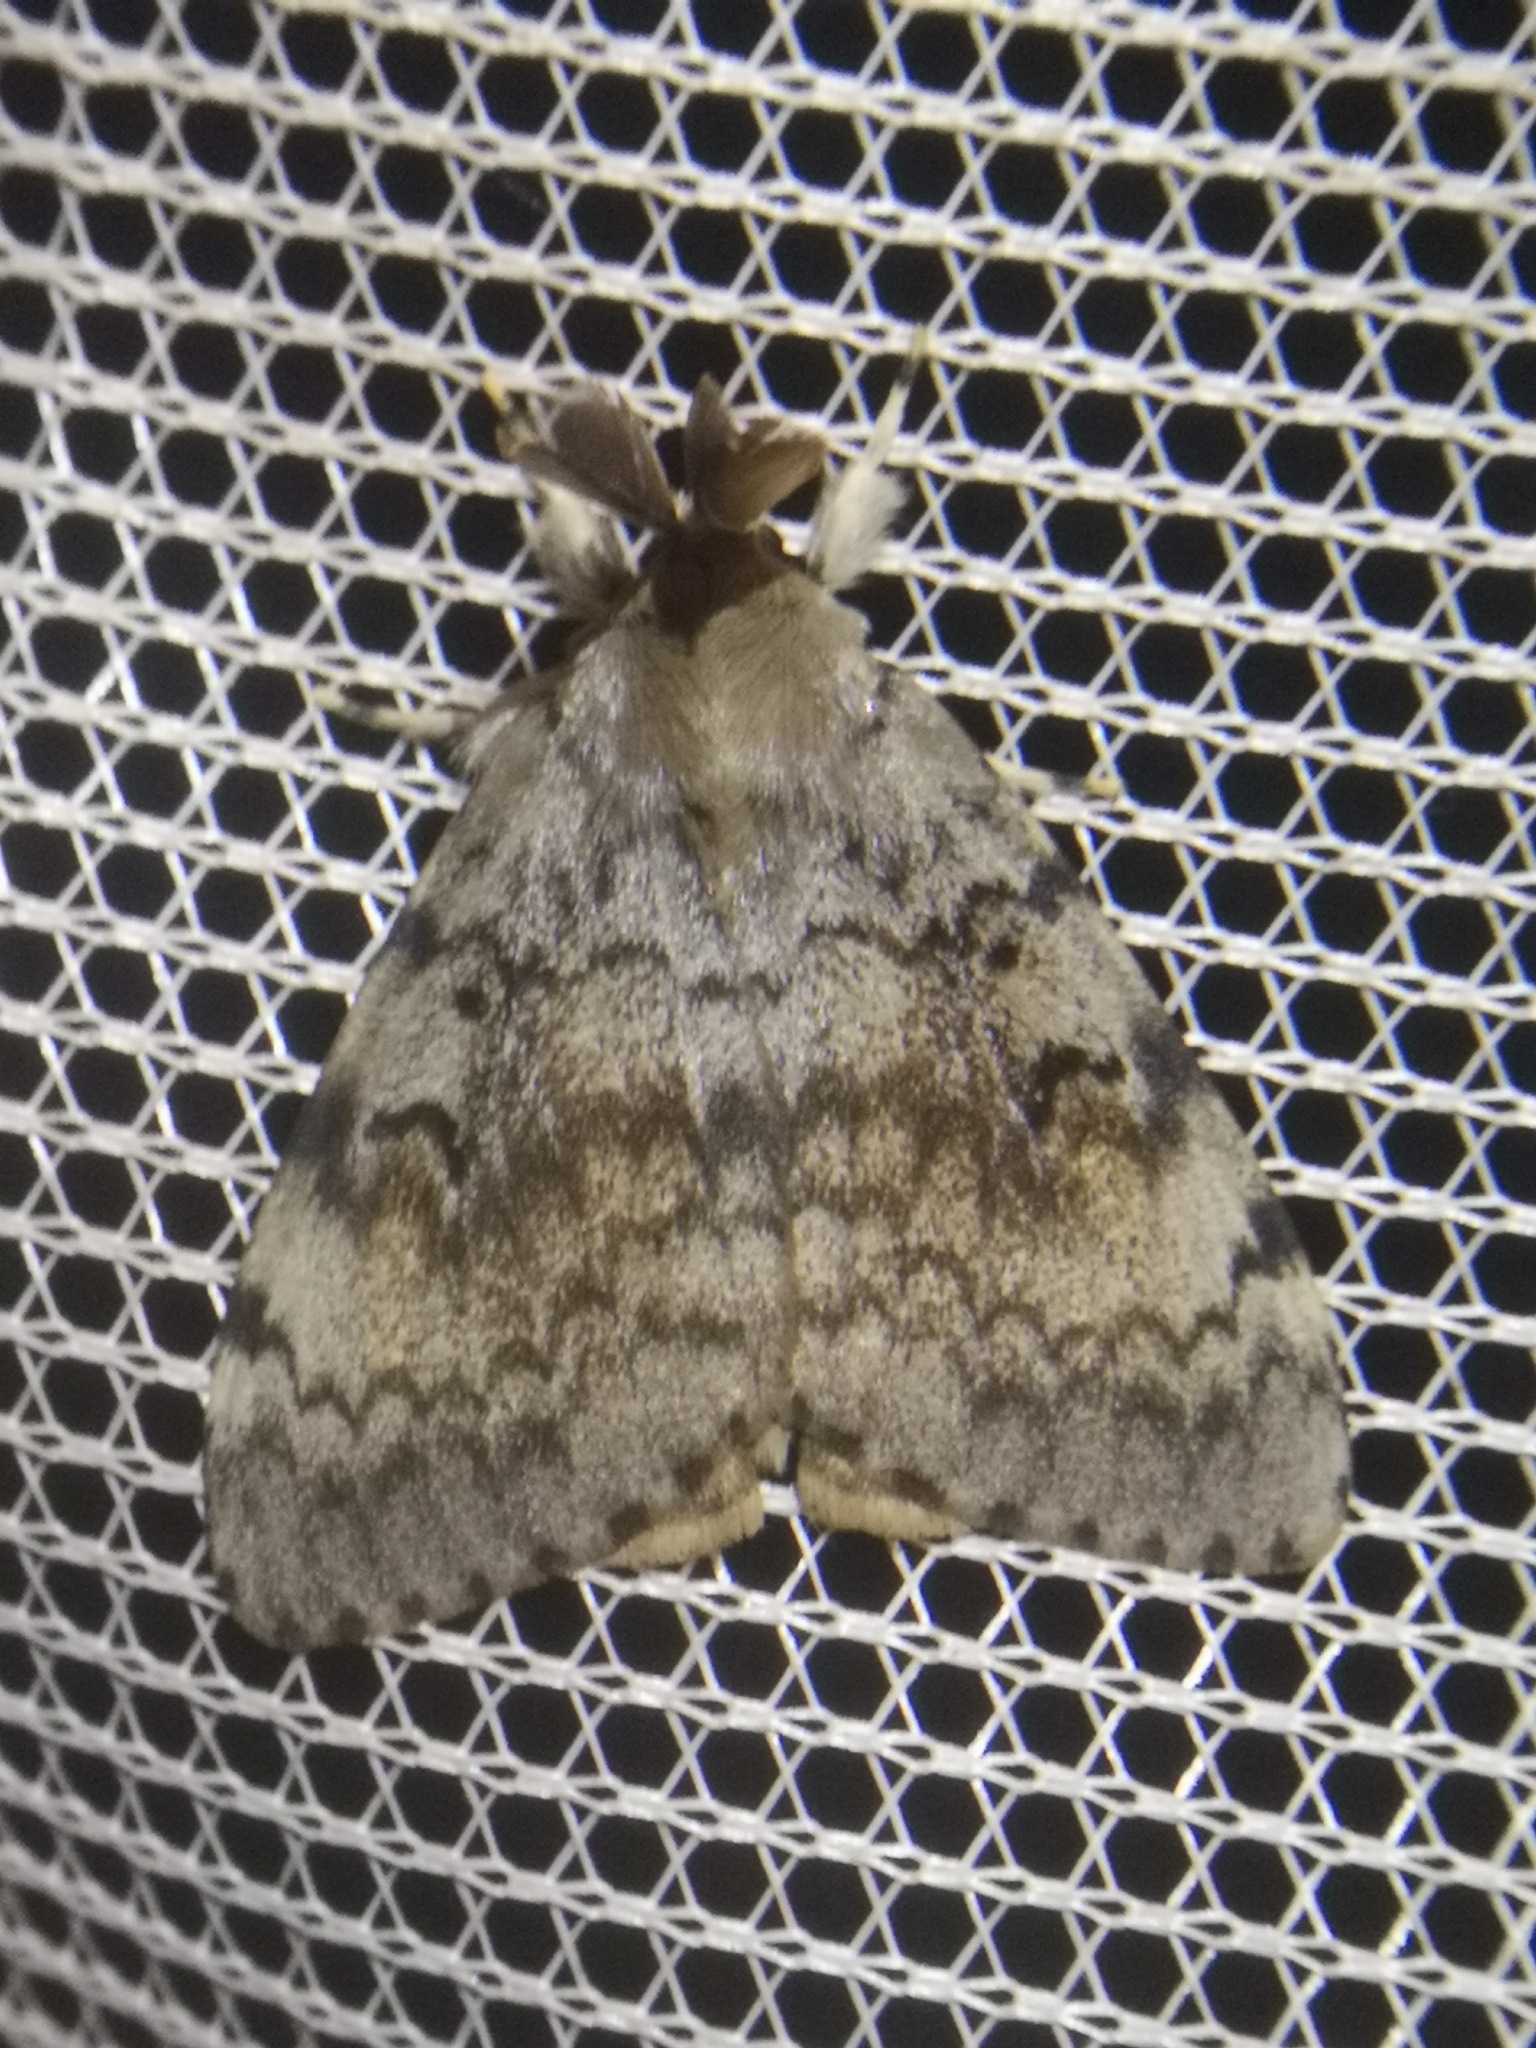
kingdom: Animalia
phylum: Arthropoda
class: Insecta
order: Lepidoptera
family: Erebidae
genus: Lymantria
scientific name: Lymantria dispar
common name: Gypsy moth
